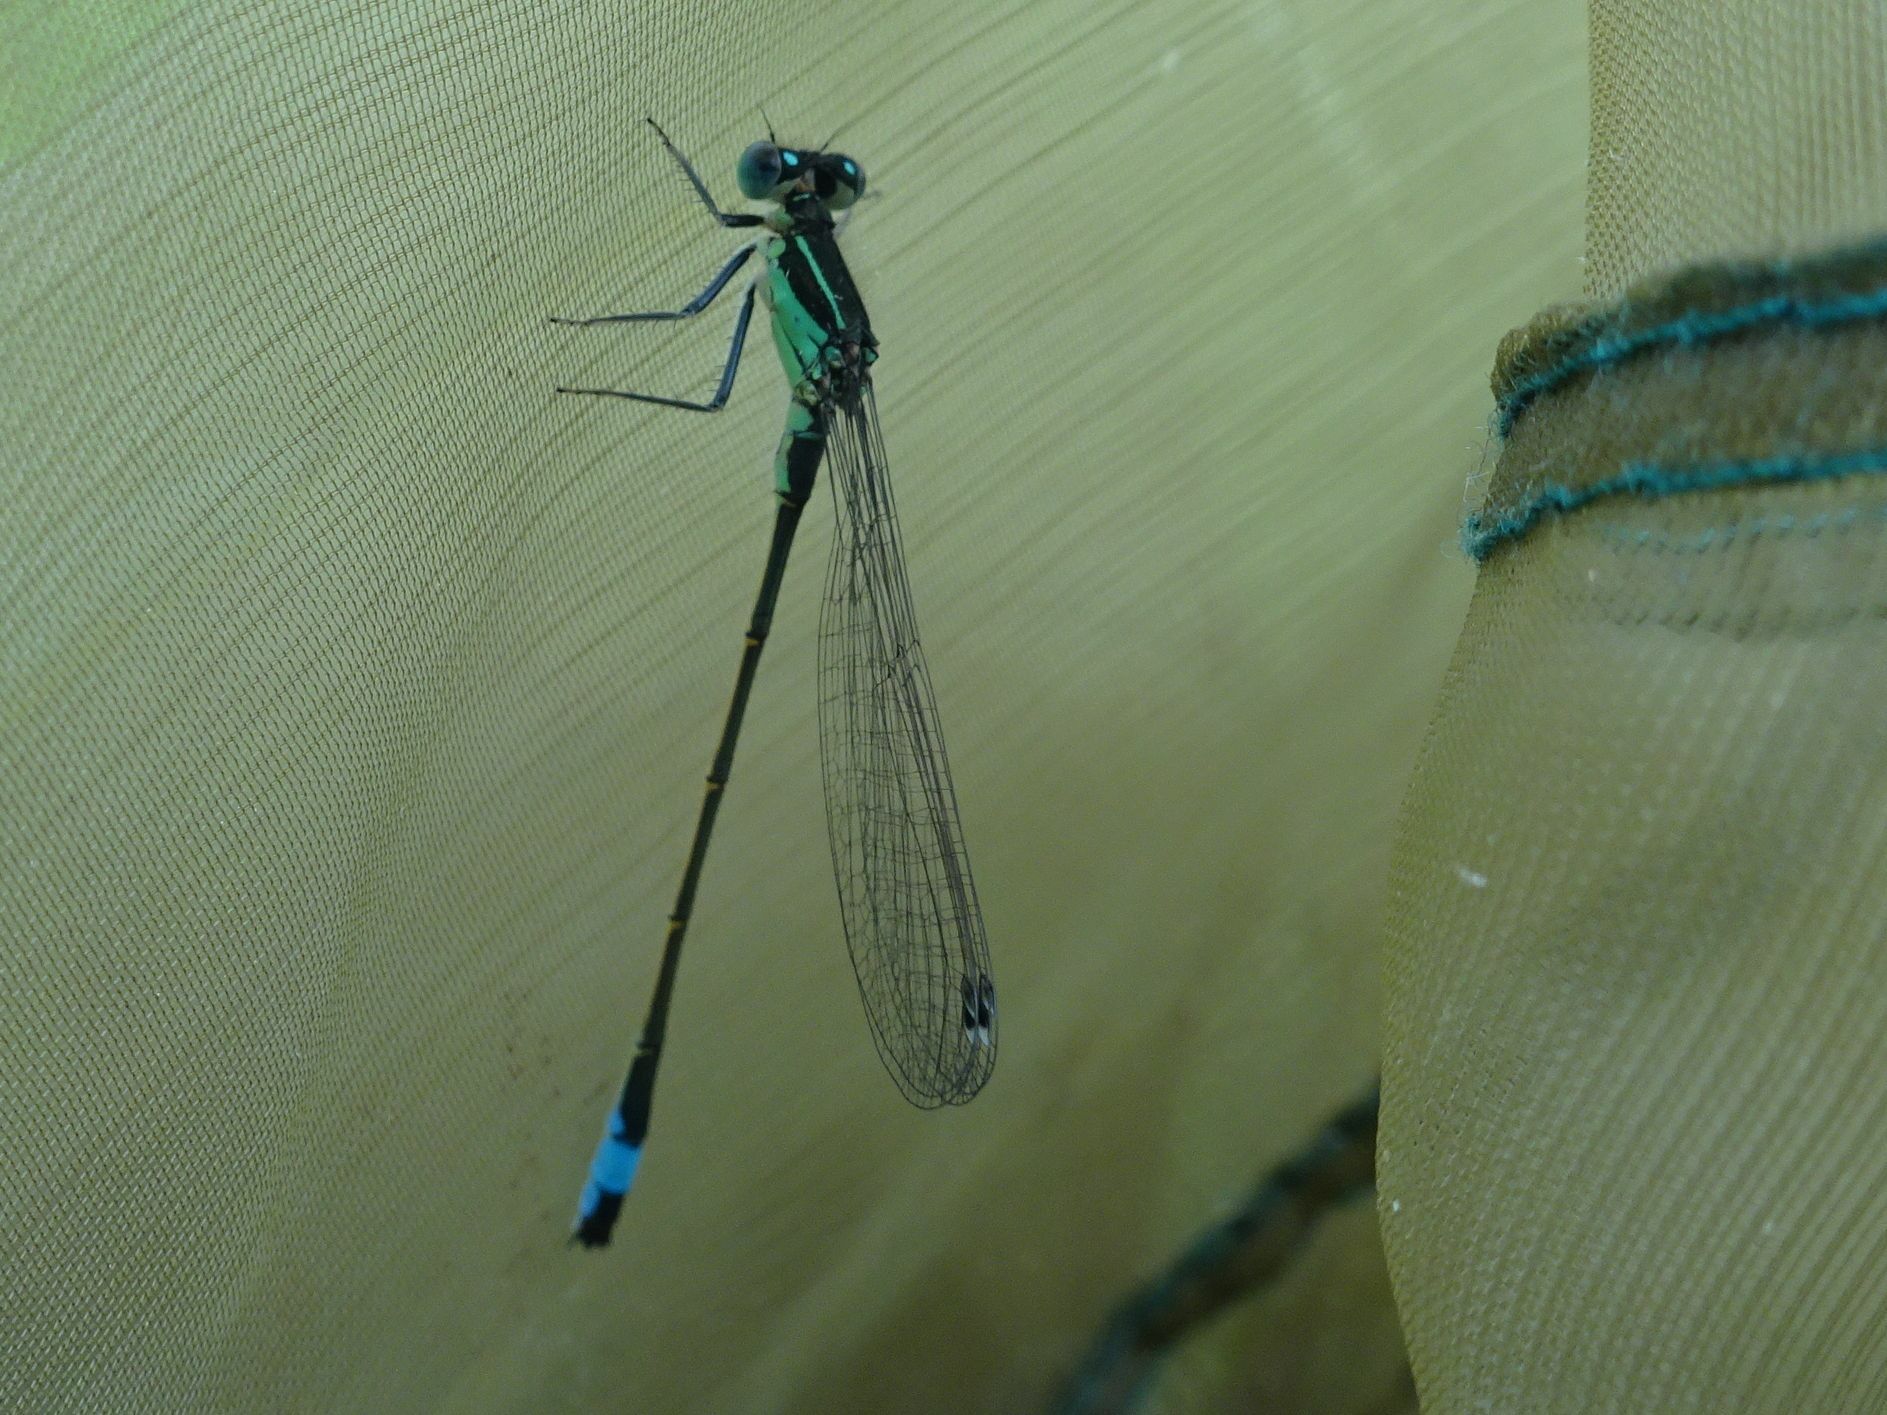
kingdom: Animalia
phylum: Arthropoda
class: Insecta
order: Odonata
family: Coenagrionidae
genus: Ischnura
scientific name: Ischnura elegans
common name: Blue-tailed damselfly
